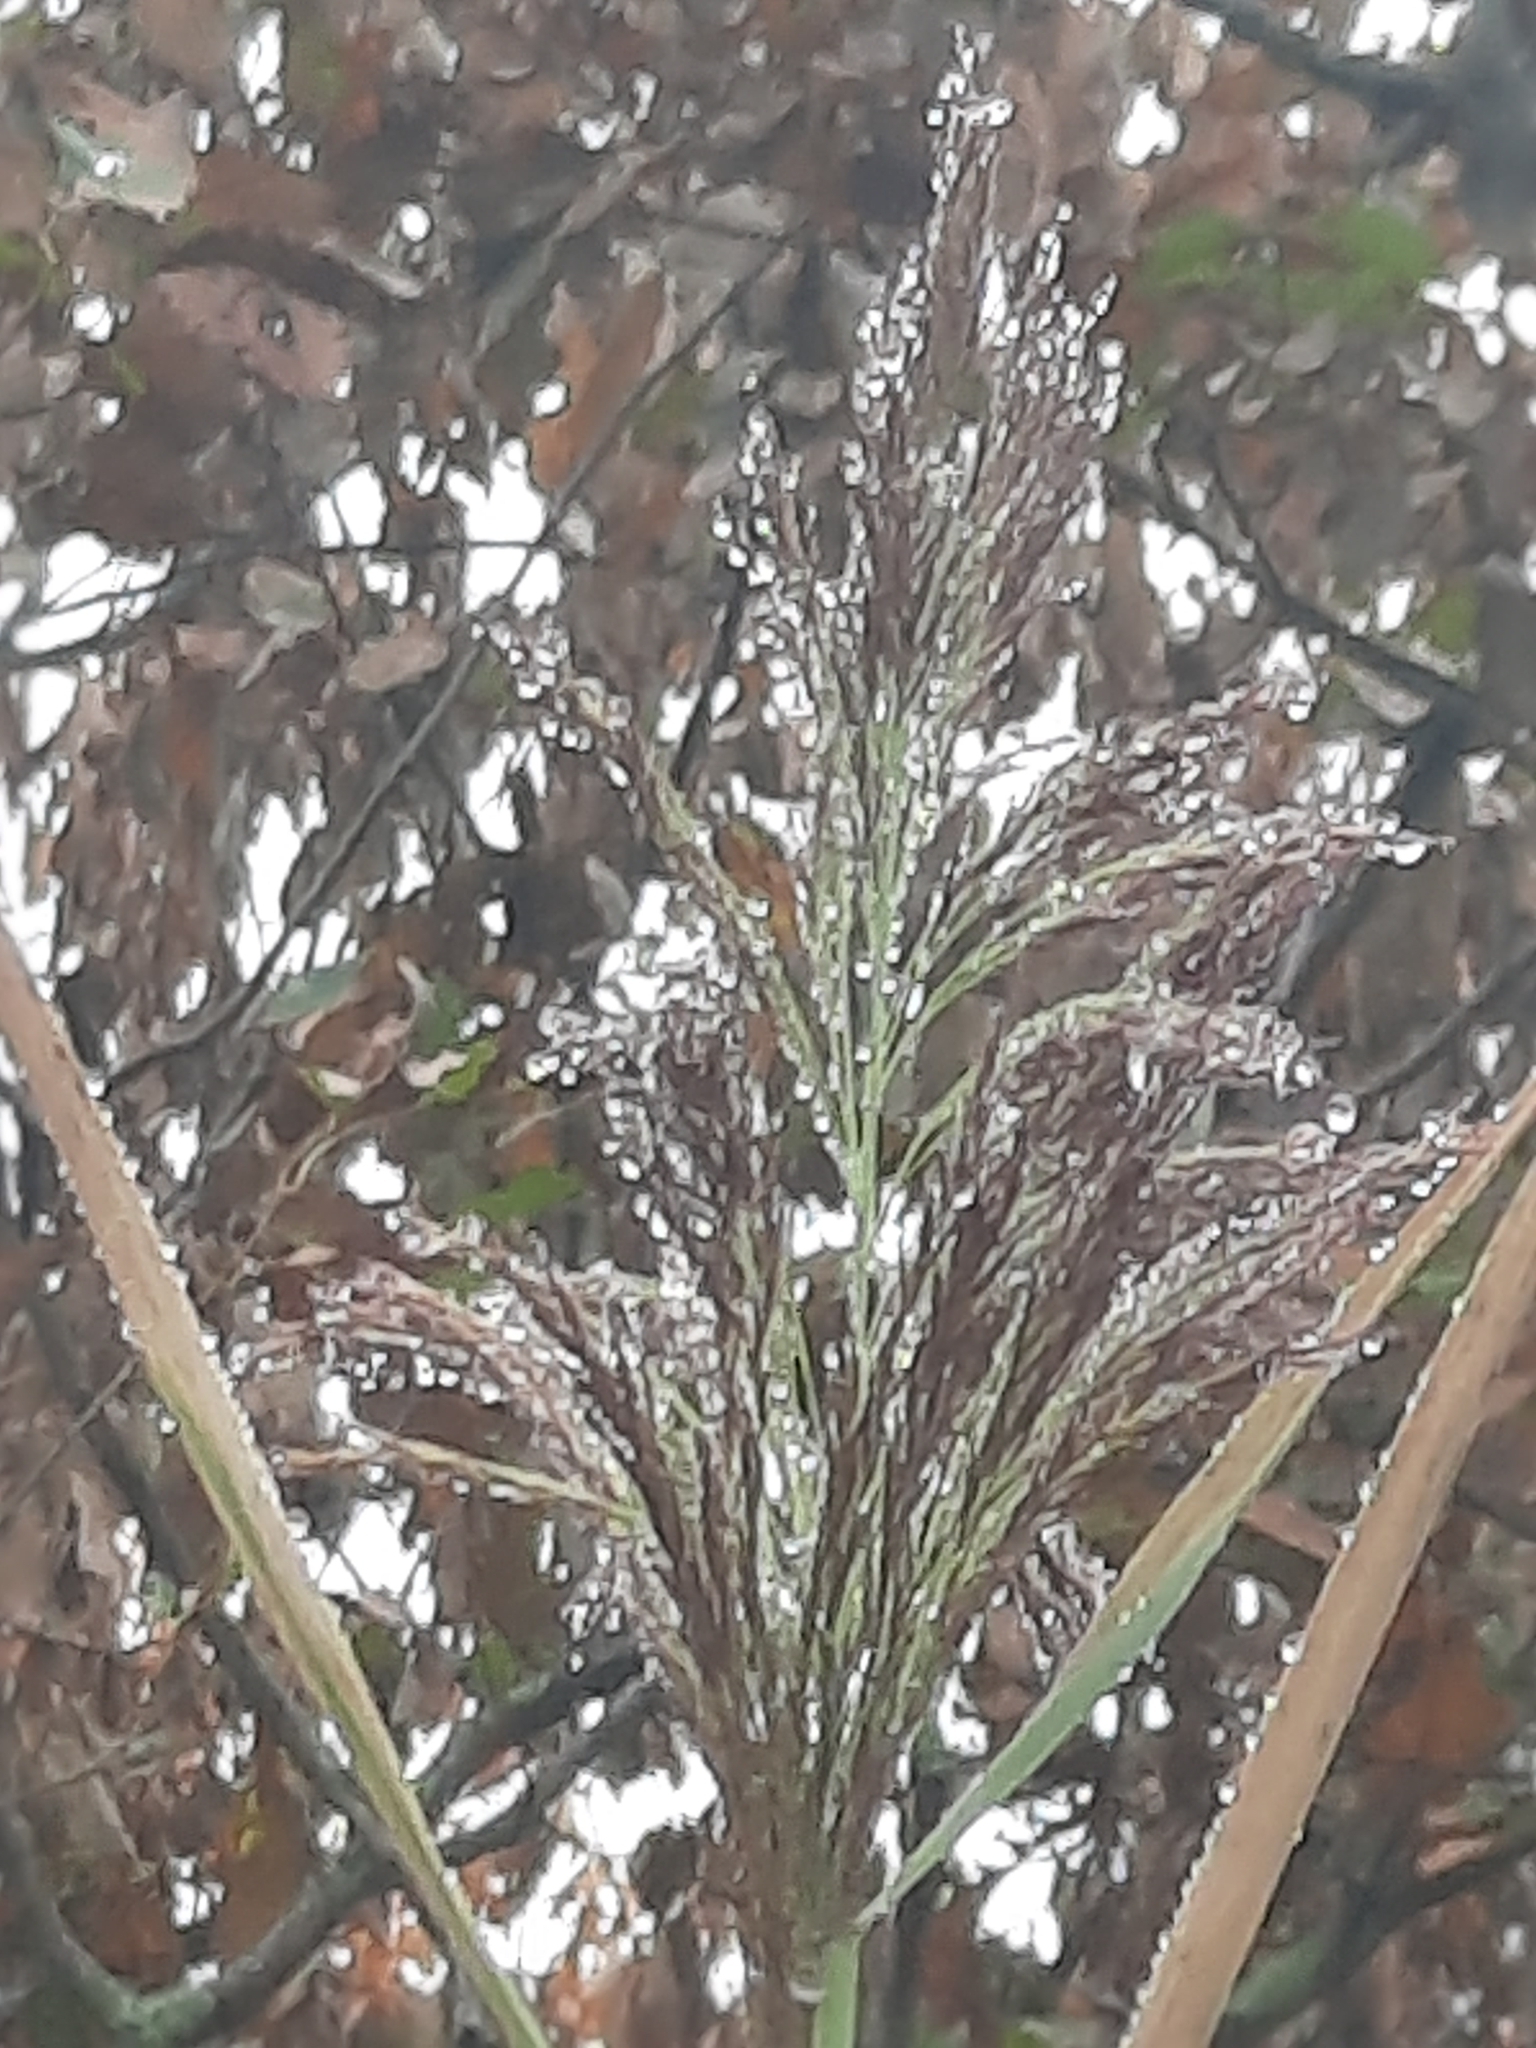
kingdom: Plantae
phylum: Tracheophyta
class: Liliopsida
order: Poales
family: Poaceae
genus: Phragmites
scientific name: Phragmites australis
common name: Common reed
